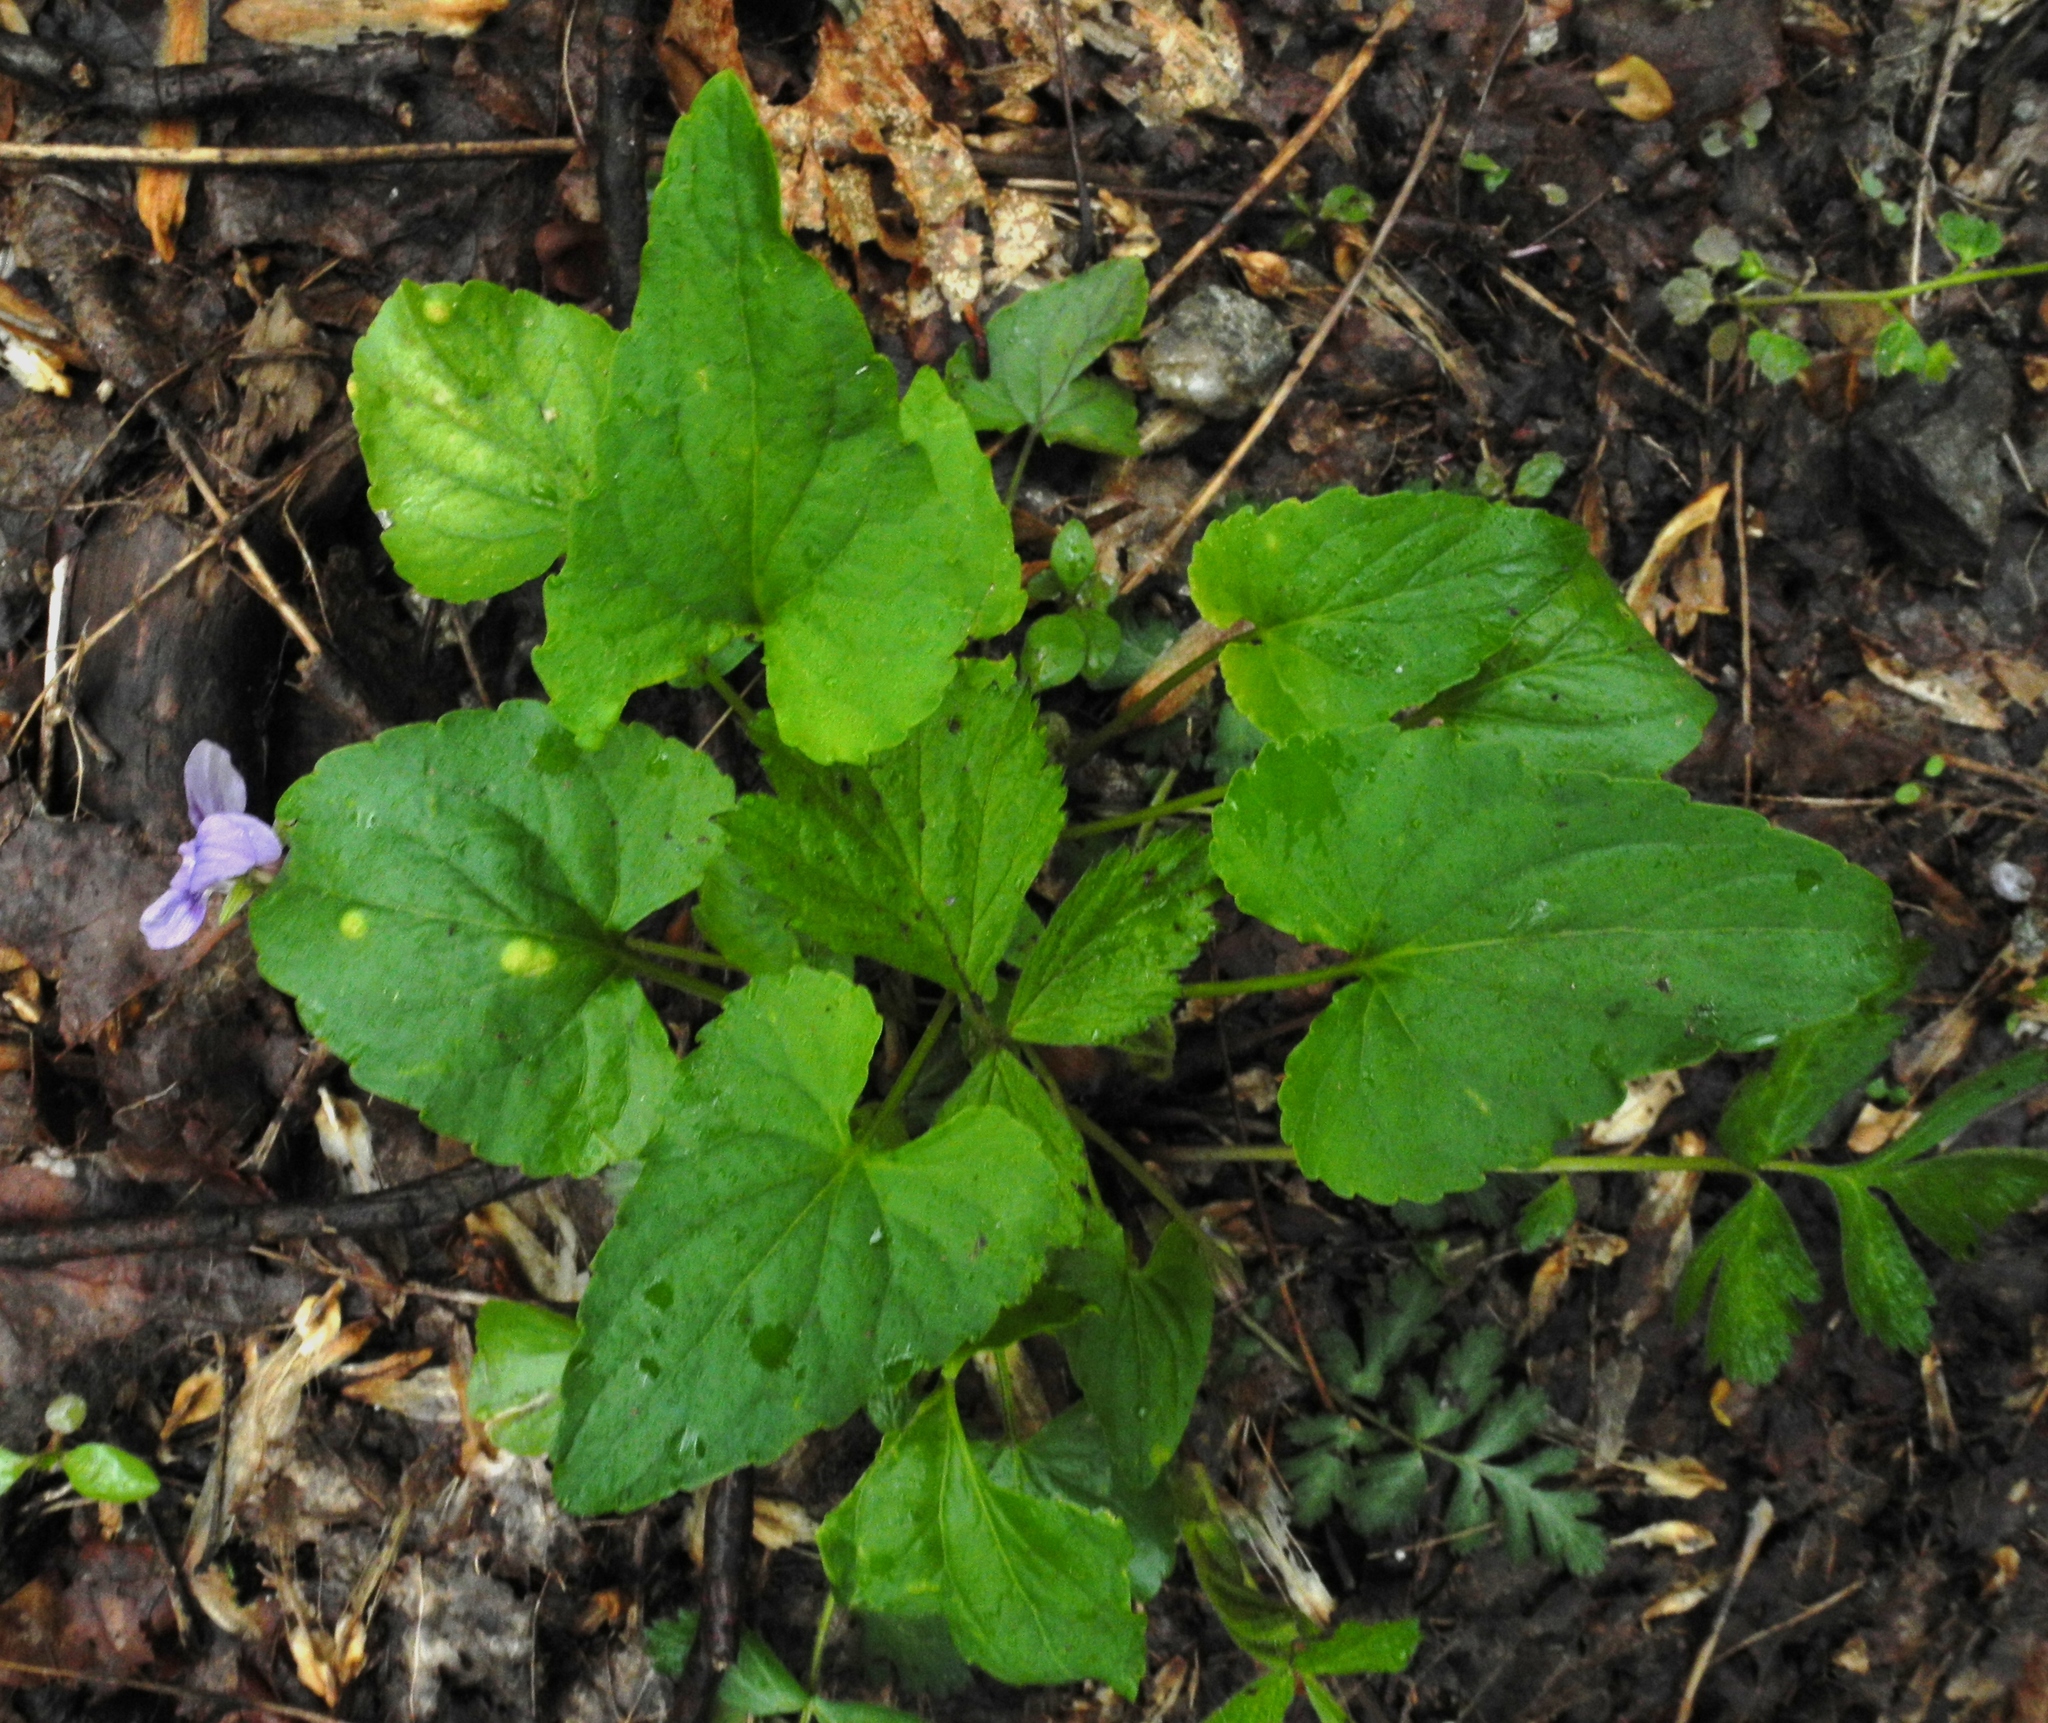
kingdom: Plantae
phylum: Tracheophyta
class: Magnoliopsida
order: Malpighiales
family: Violaceae
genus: Viola
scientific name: Viola affinis
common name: Leconte's violet
